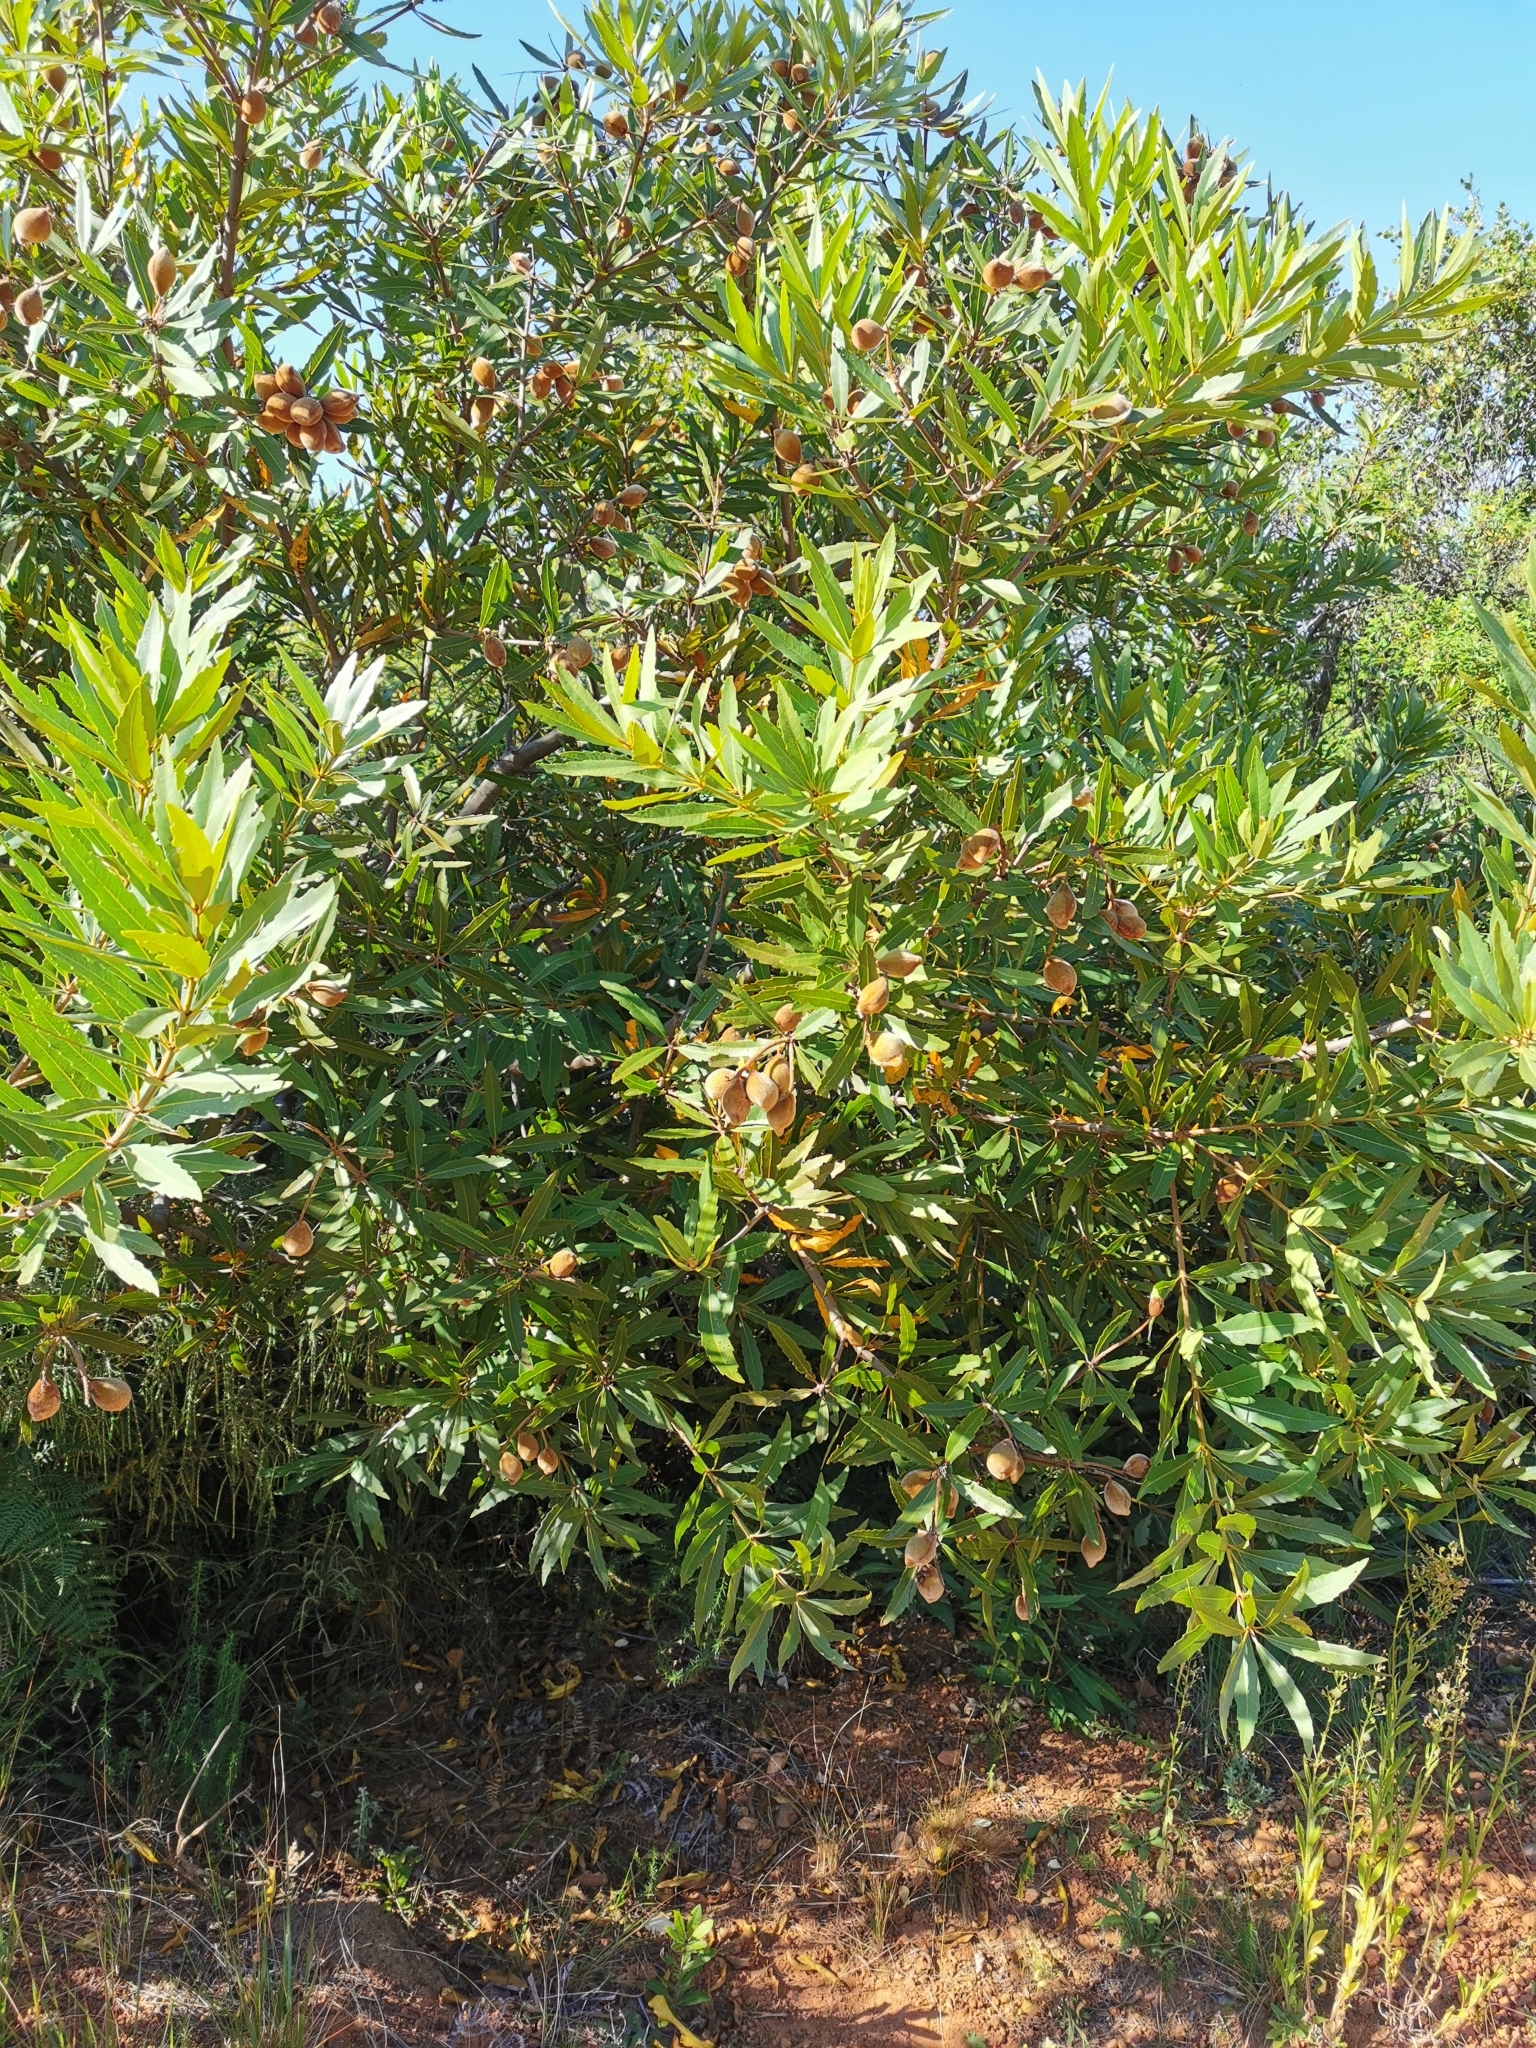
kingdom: Plantae
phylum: Tracheophyta
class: Magnoliopsida
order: Proteales
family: Proteaceae
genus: Brabejum
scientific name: Brabejum stellatifolium
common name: Wild almond
